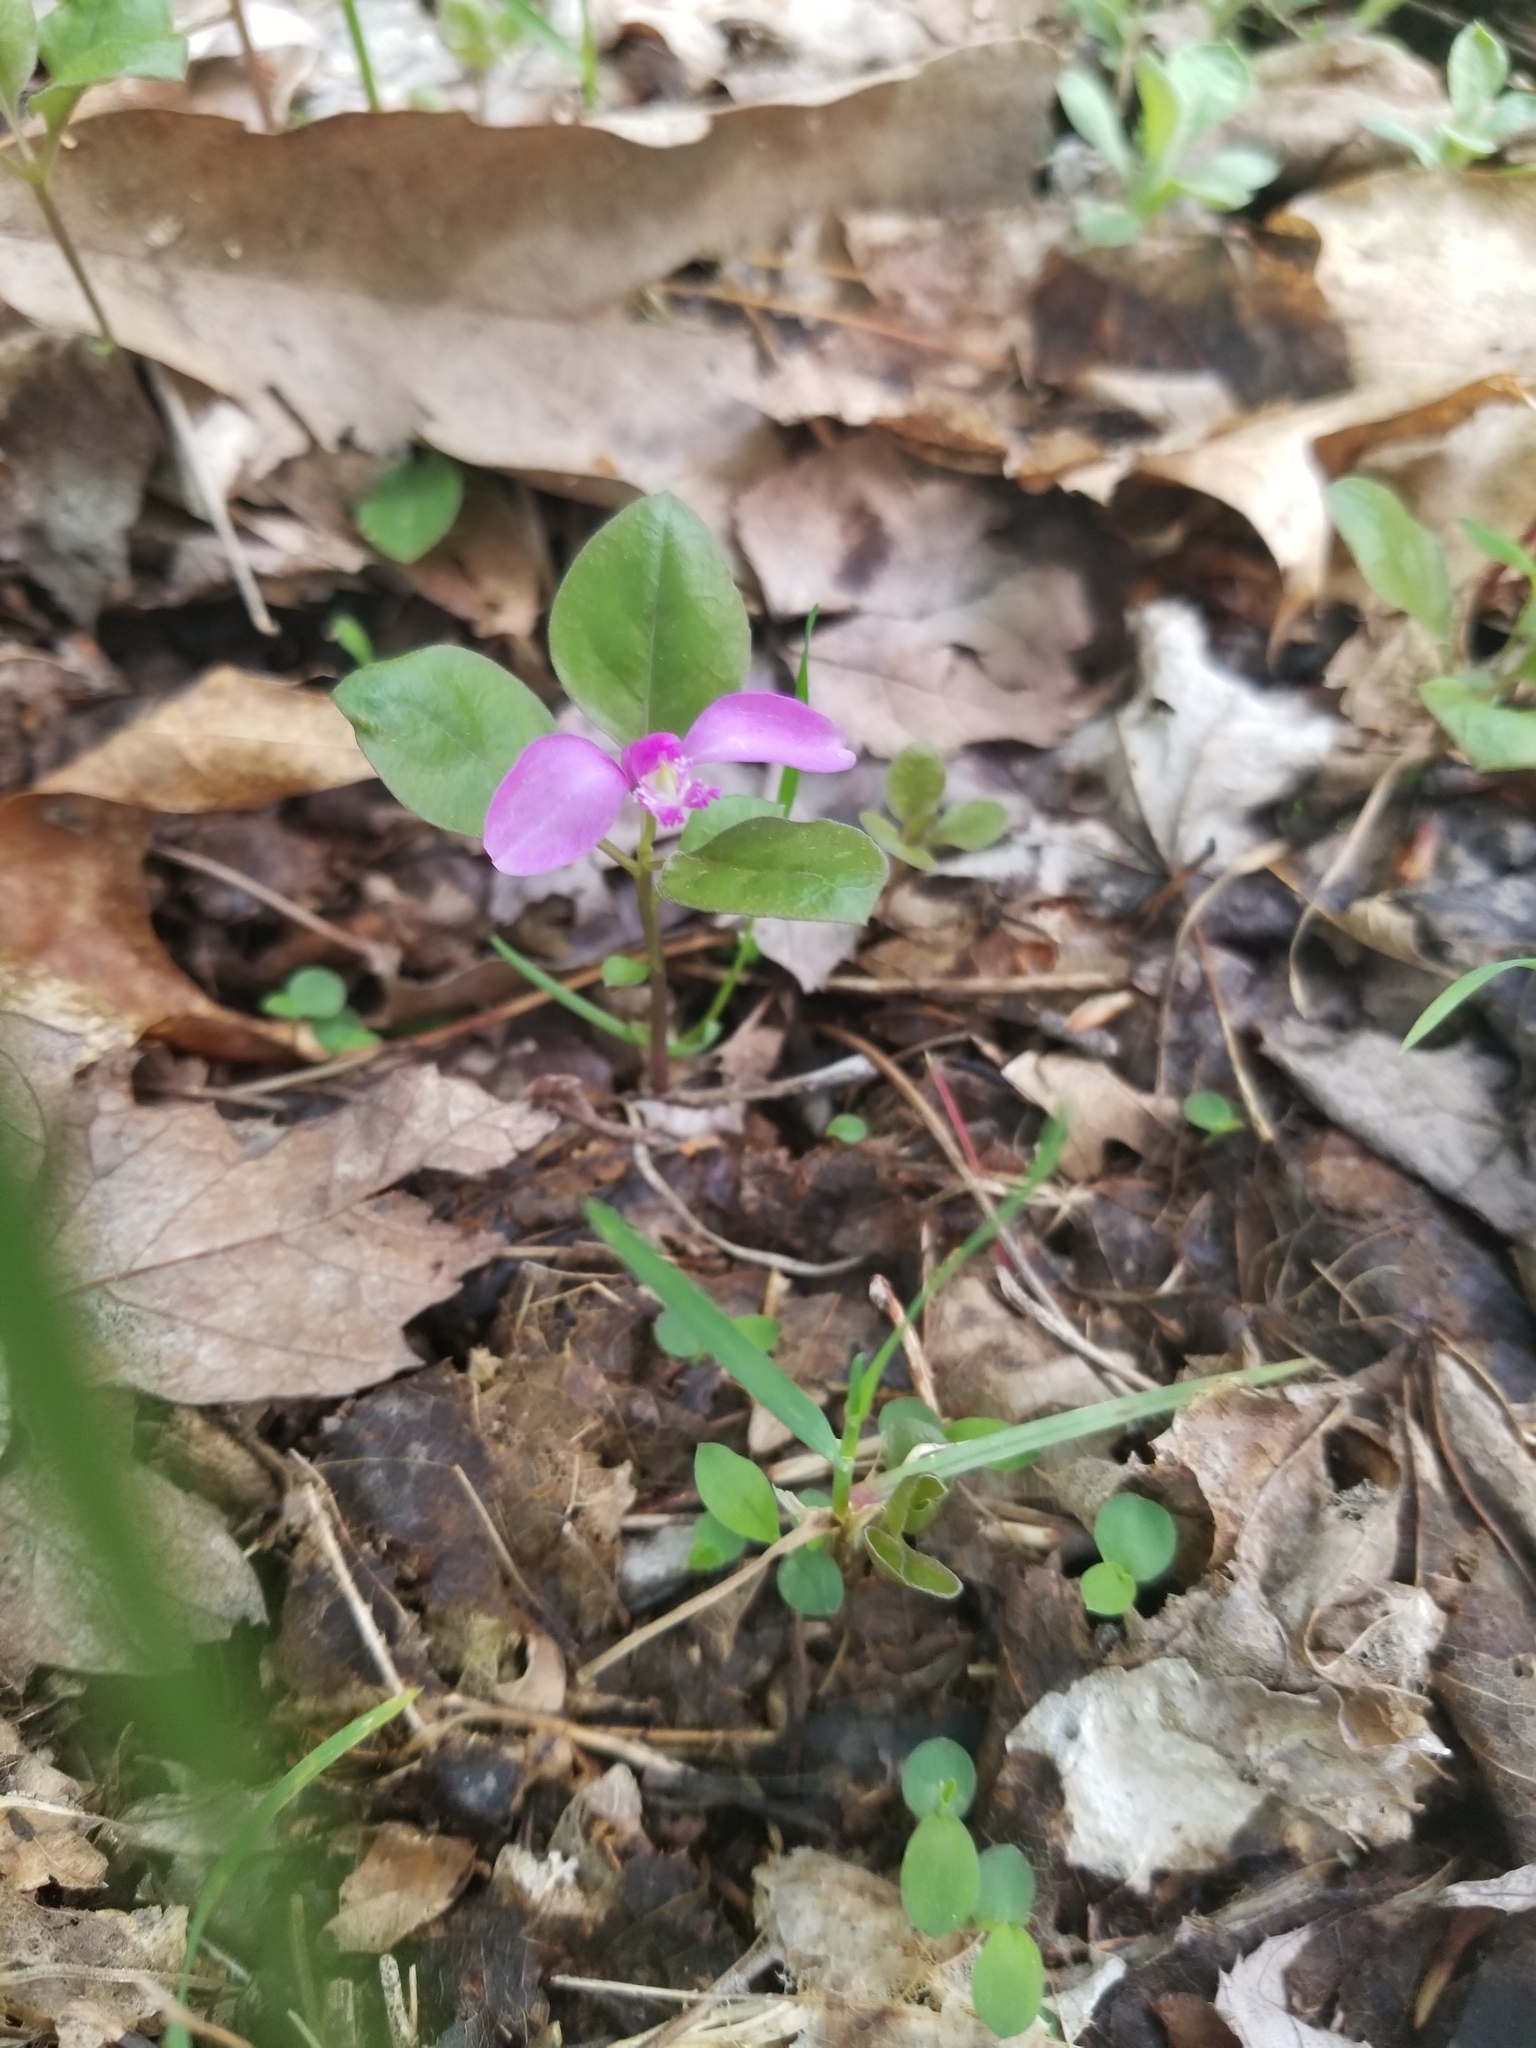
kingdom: Plantae
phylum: Tracheophyta
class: Magnoliopsida
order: Fabales
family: Polygalaceae
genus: Polygaloides
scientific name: Polygaloides paucifolia
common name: Bird-on-the-wing
